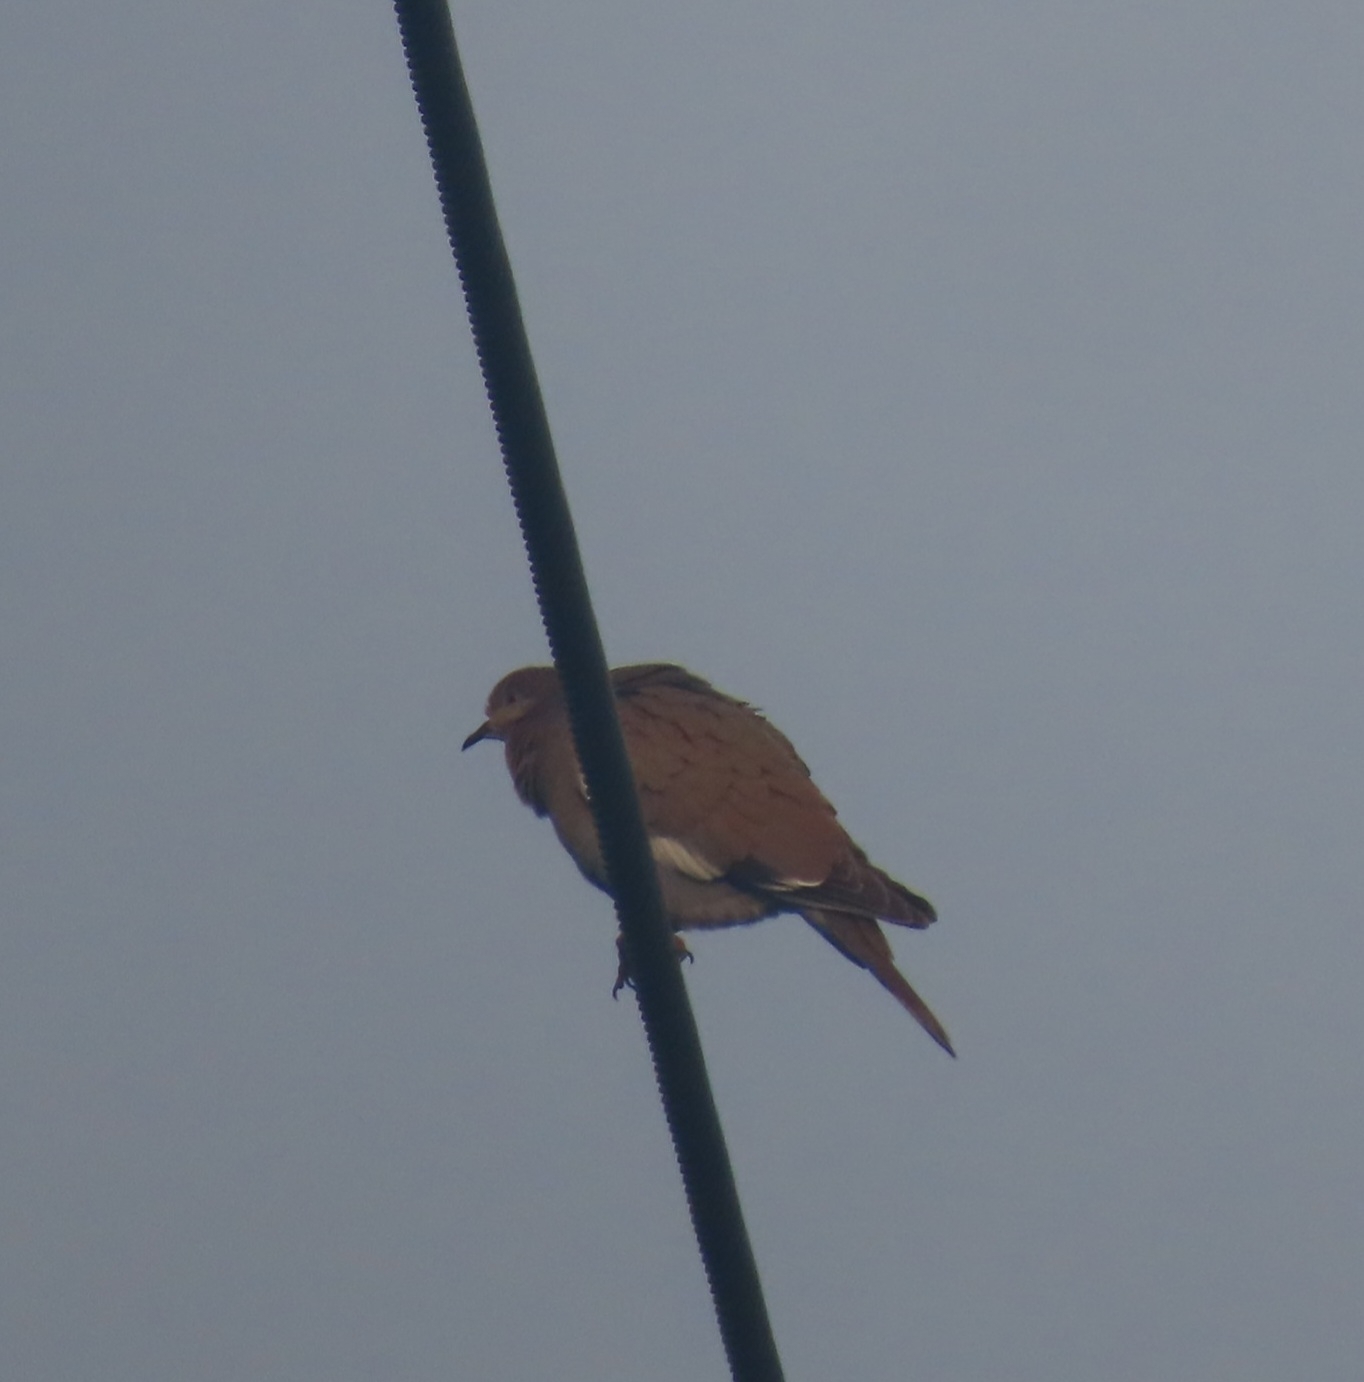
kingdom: Animalia
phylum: Chordata
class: Aves
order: Columbiformes
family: Columbidae
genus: Zenaida
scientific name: Zenaida asiatica
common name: White-winged dove
